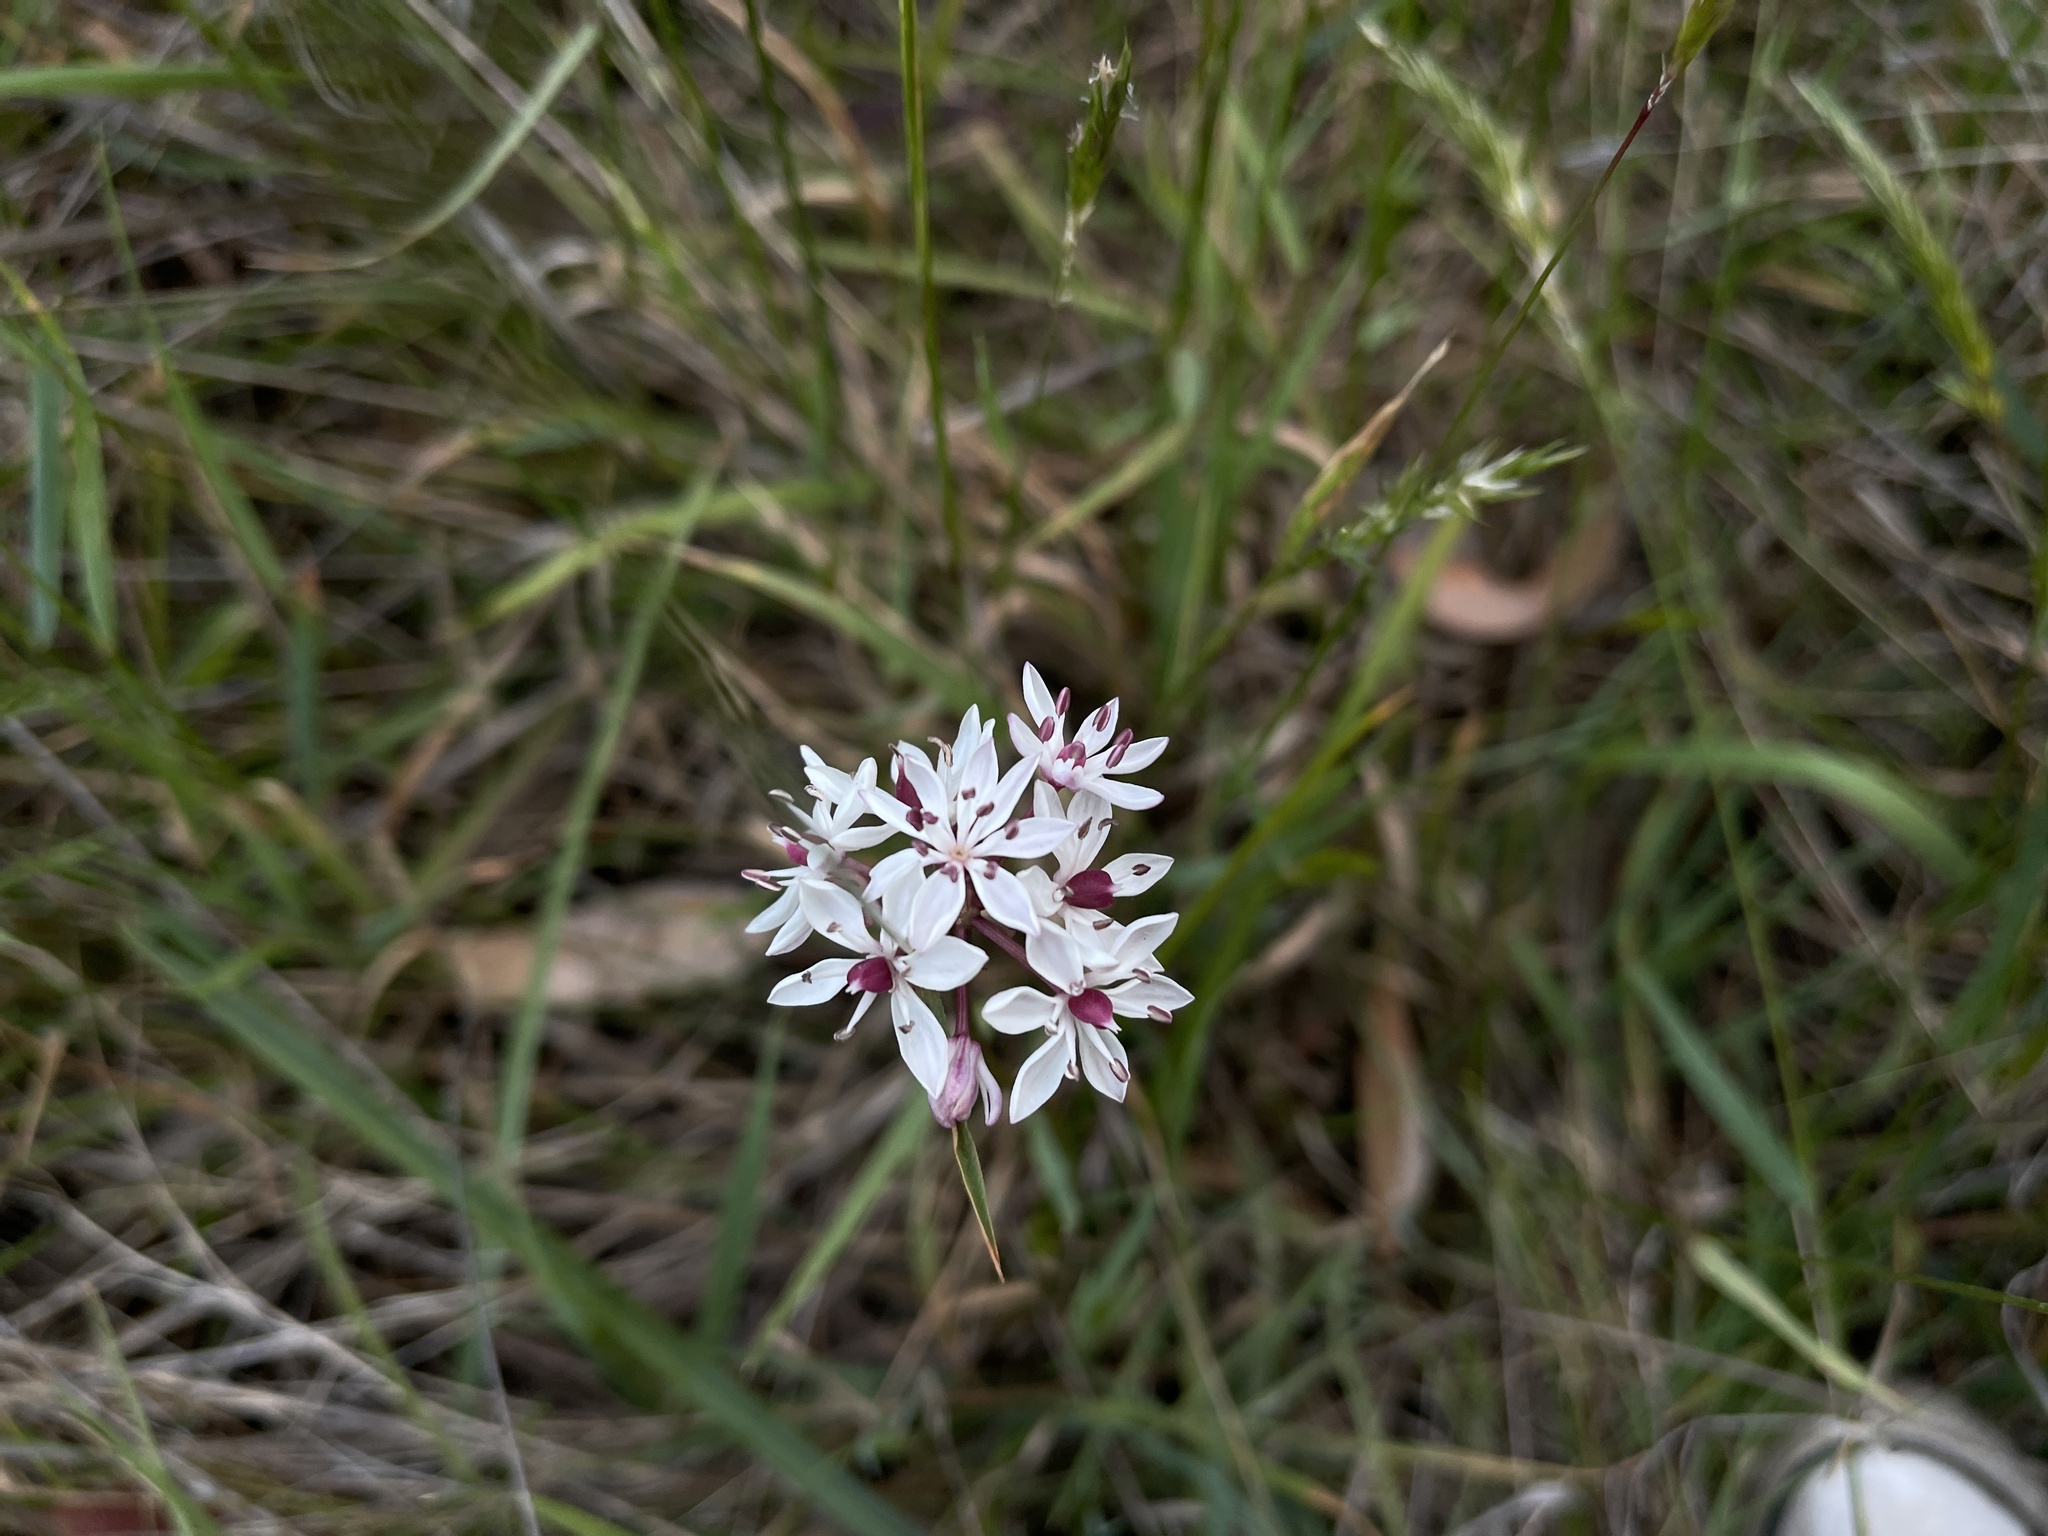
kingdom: Plantae
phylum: Tracheophyta
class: Liliopsida
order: Liliales
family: Colchicaceae
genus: Burchardia
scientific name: Burchardia umbellata
